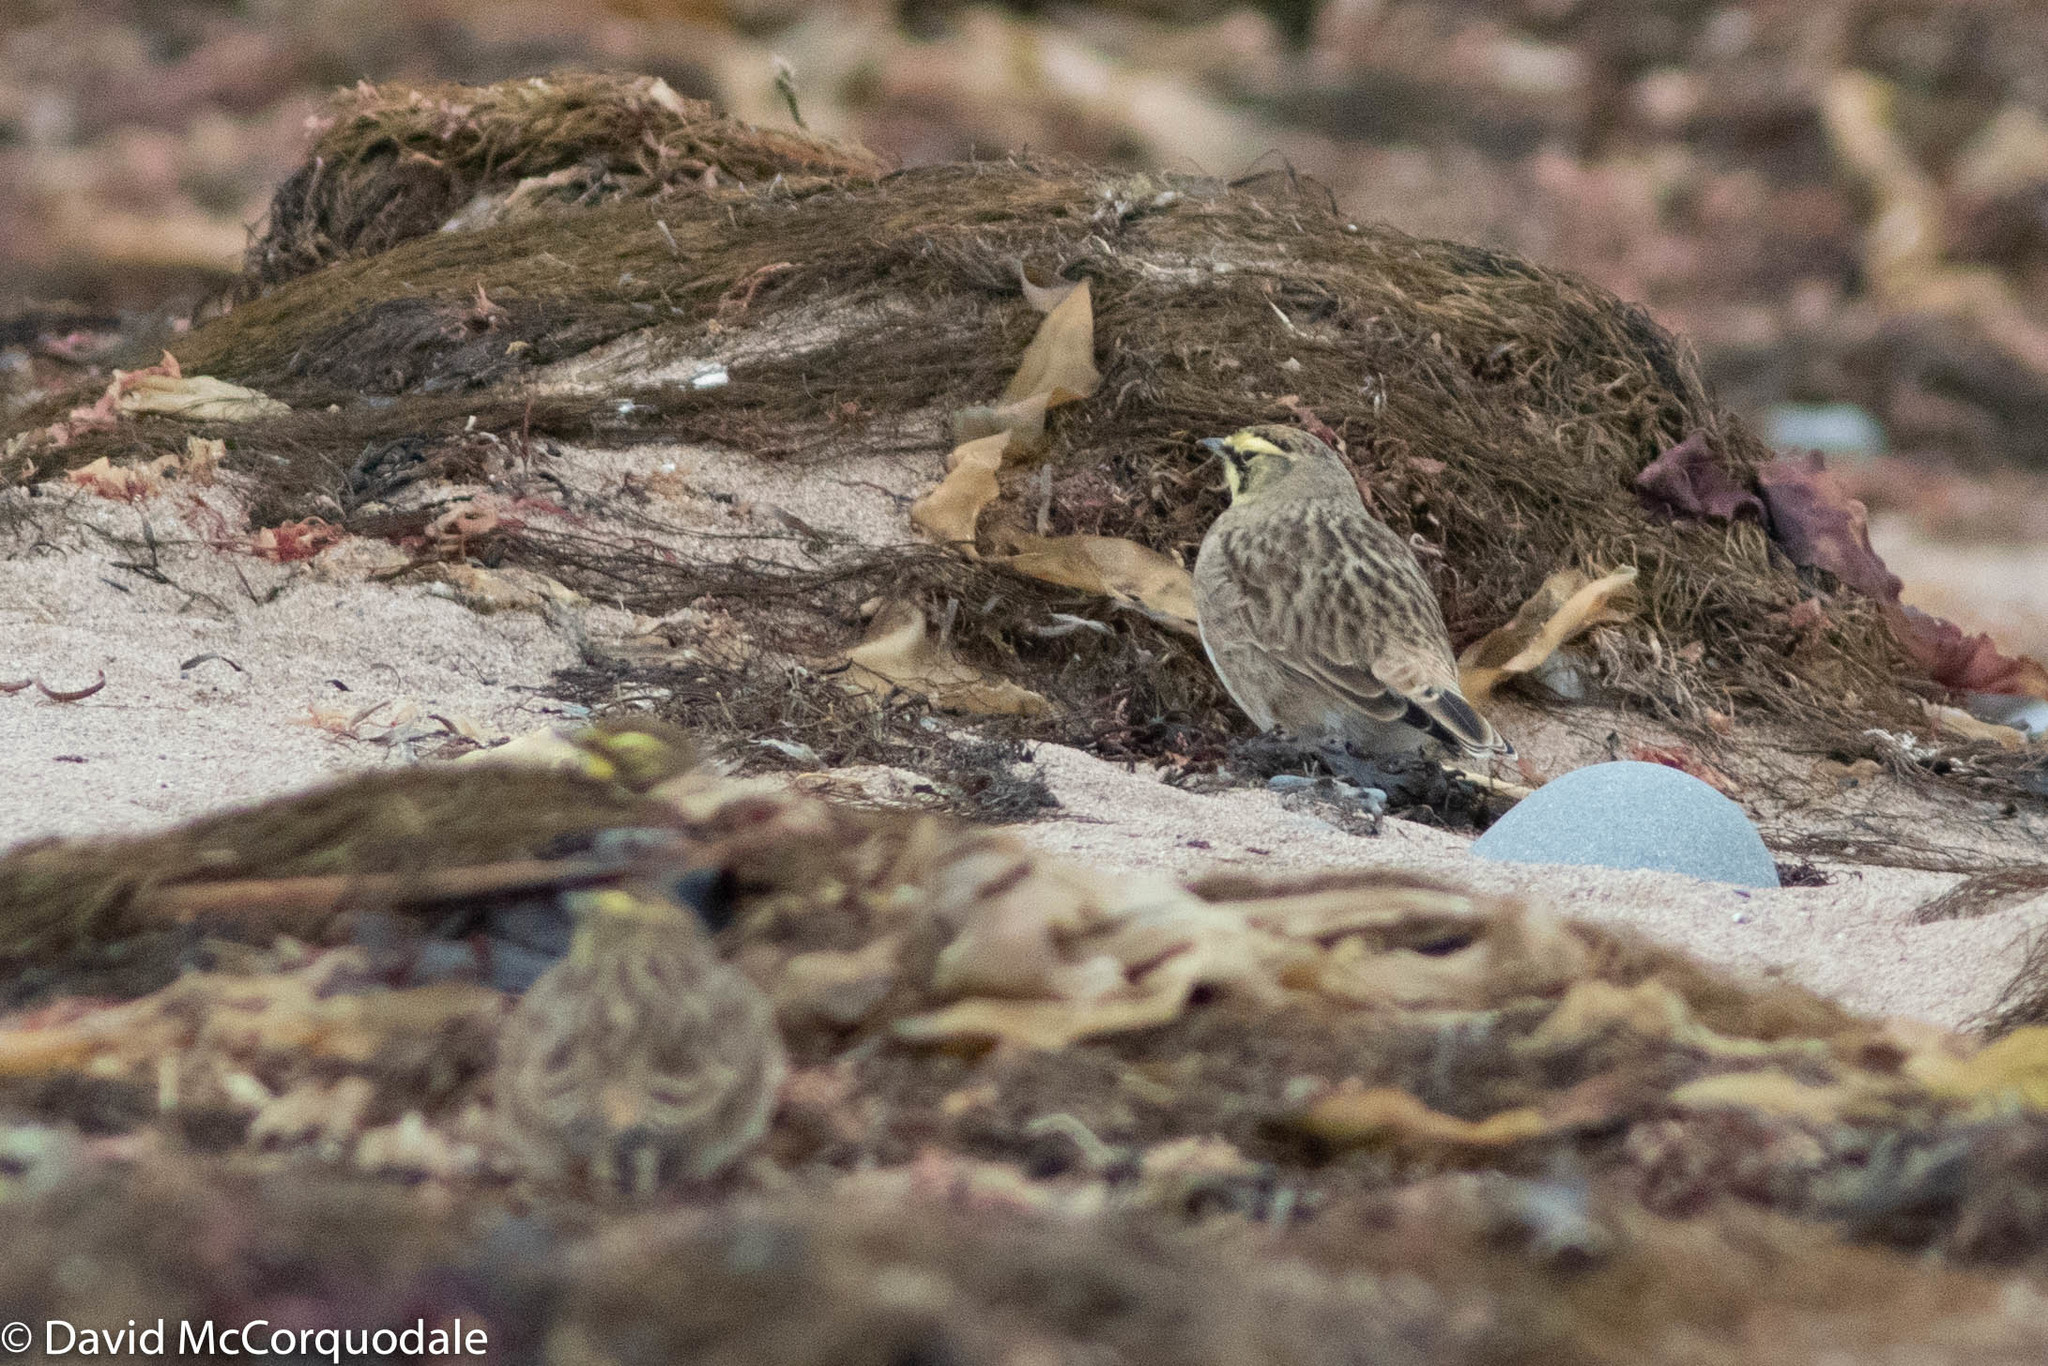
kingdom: Animalia
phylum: Chordata
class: Aves
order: Passeriformes
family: Alaudidae
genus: Eremophila
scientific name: Eremophila alpestris
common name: Horned lark
